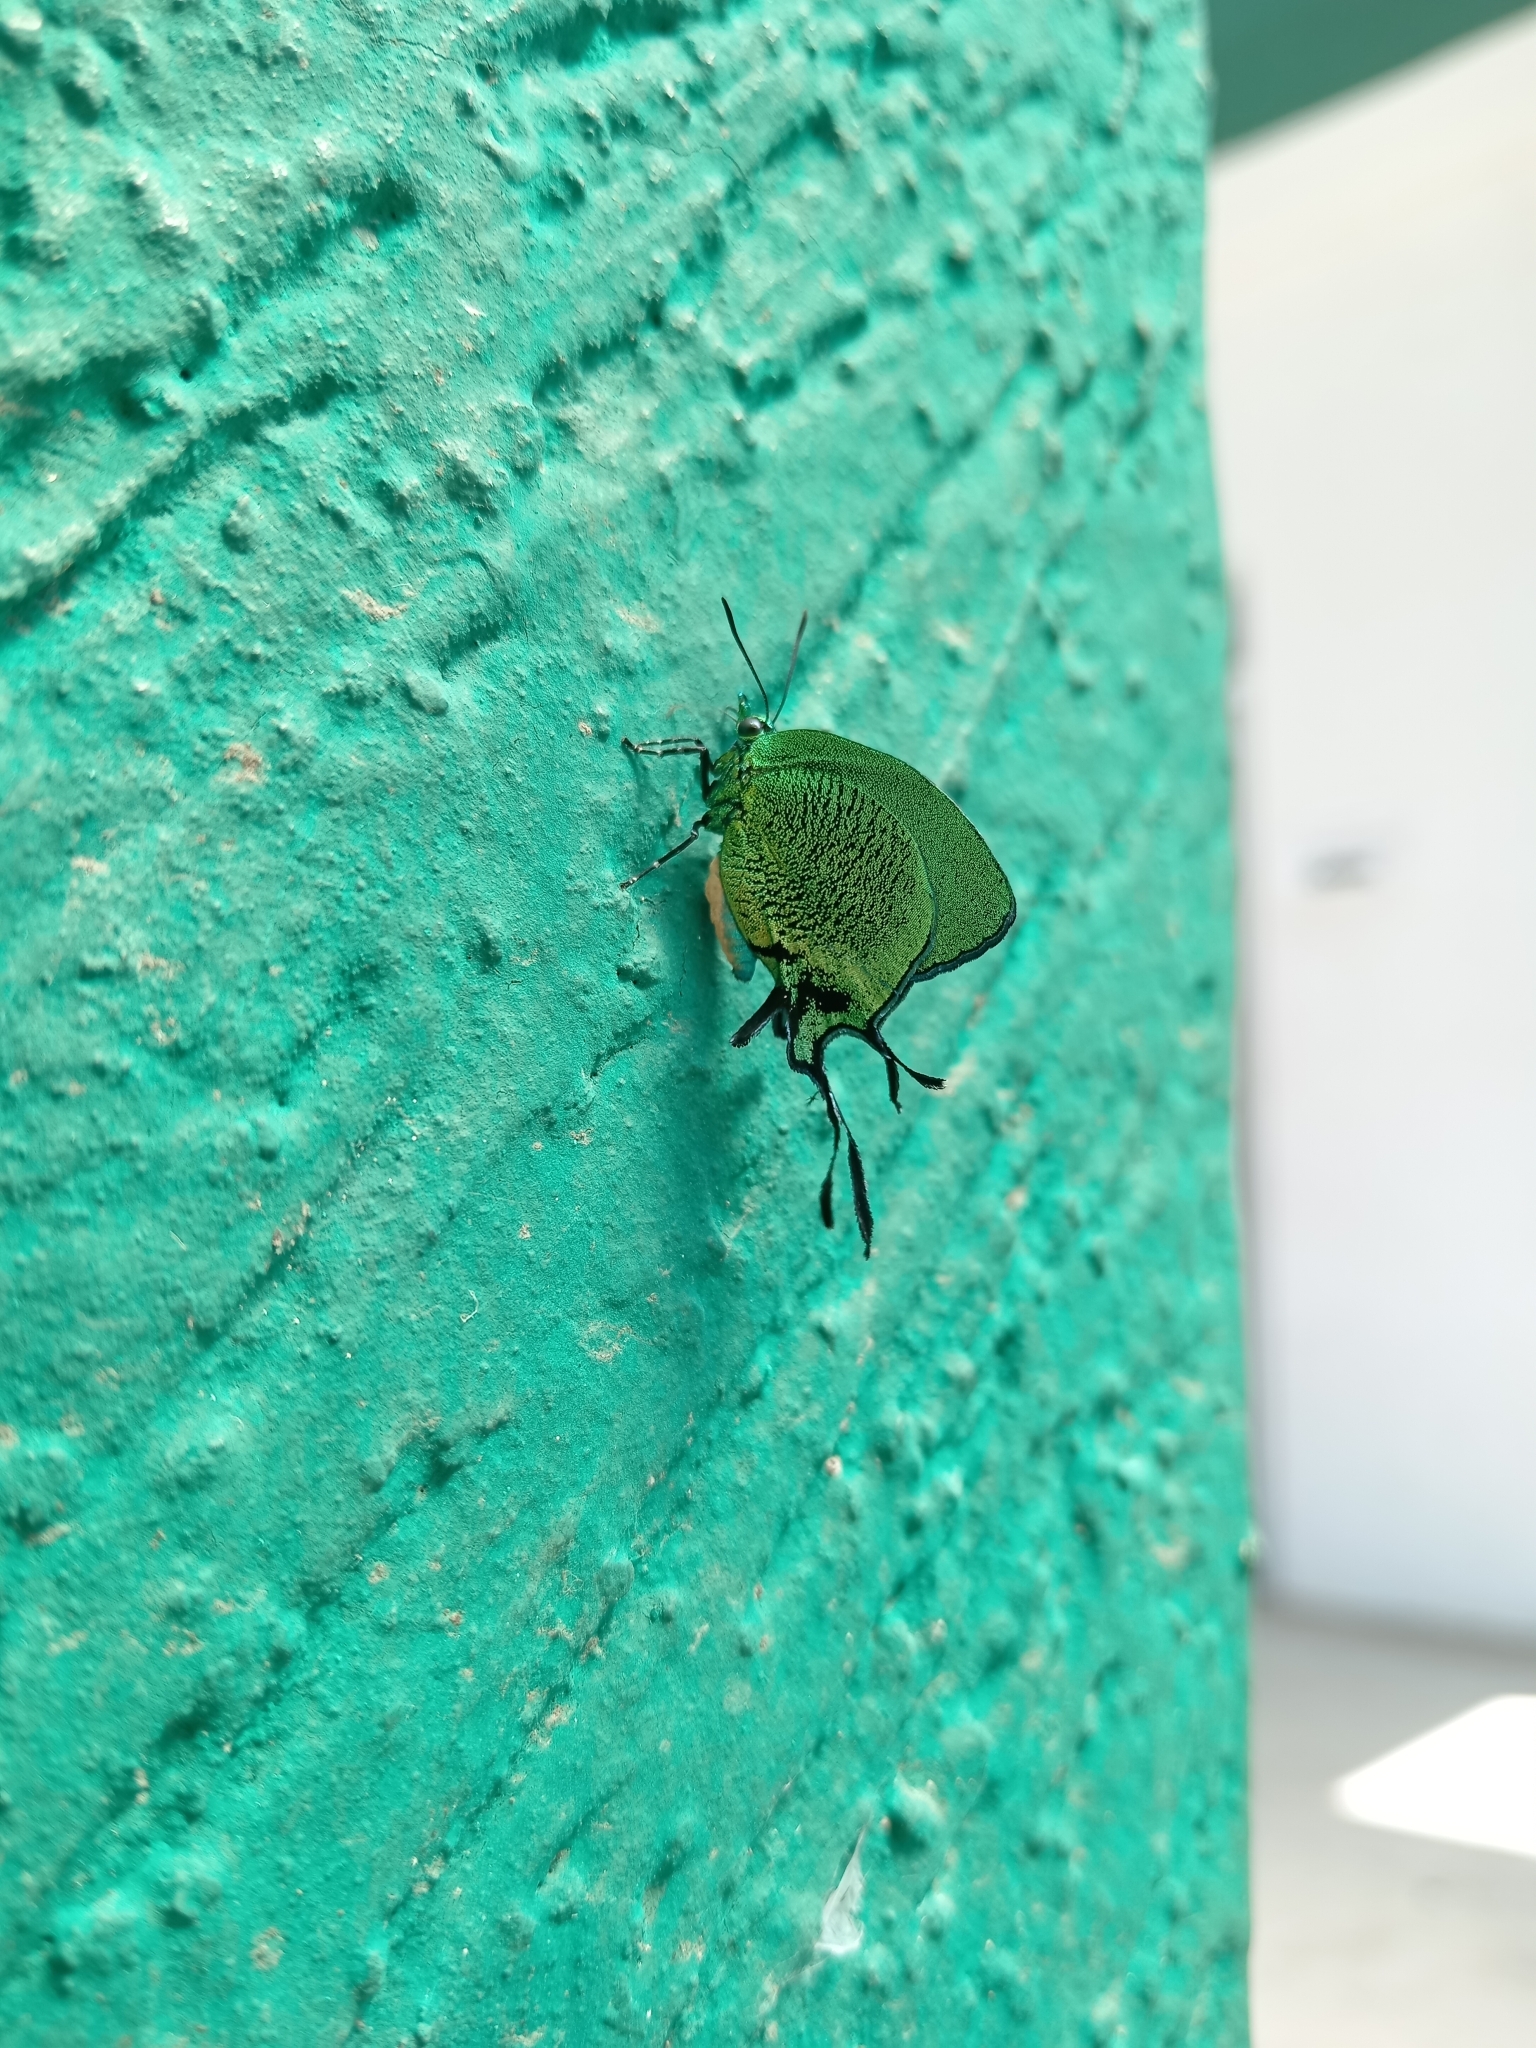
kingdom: Animalia
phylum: Arthropoda
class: Insecta
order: Lepidoptera
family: Lycaenidae
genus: Arcas
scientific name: Arcas imperialis
